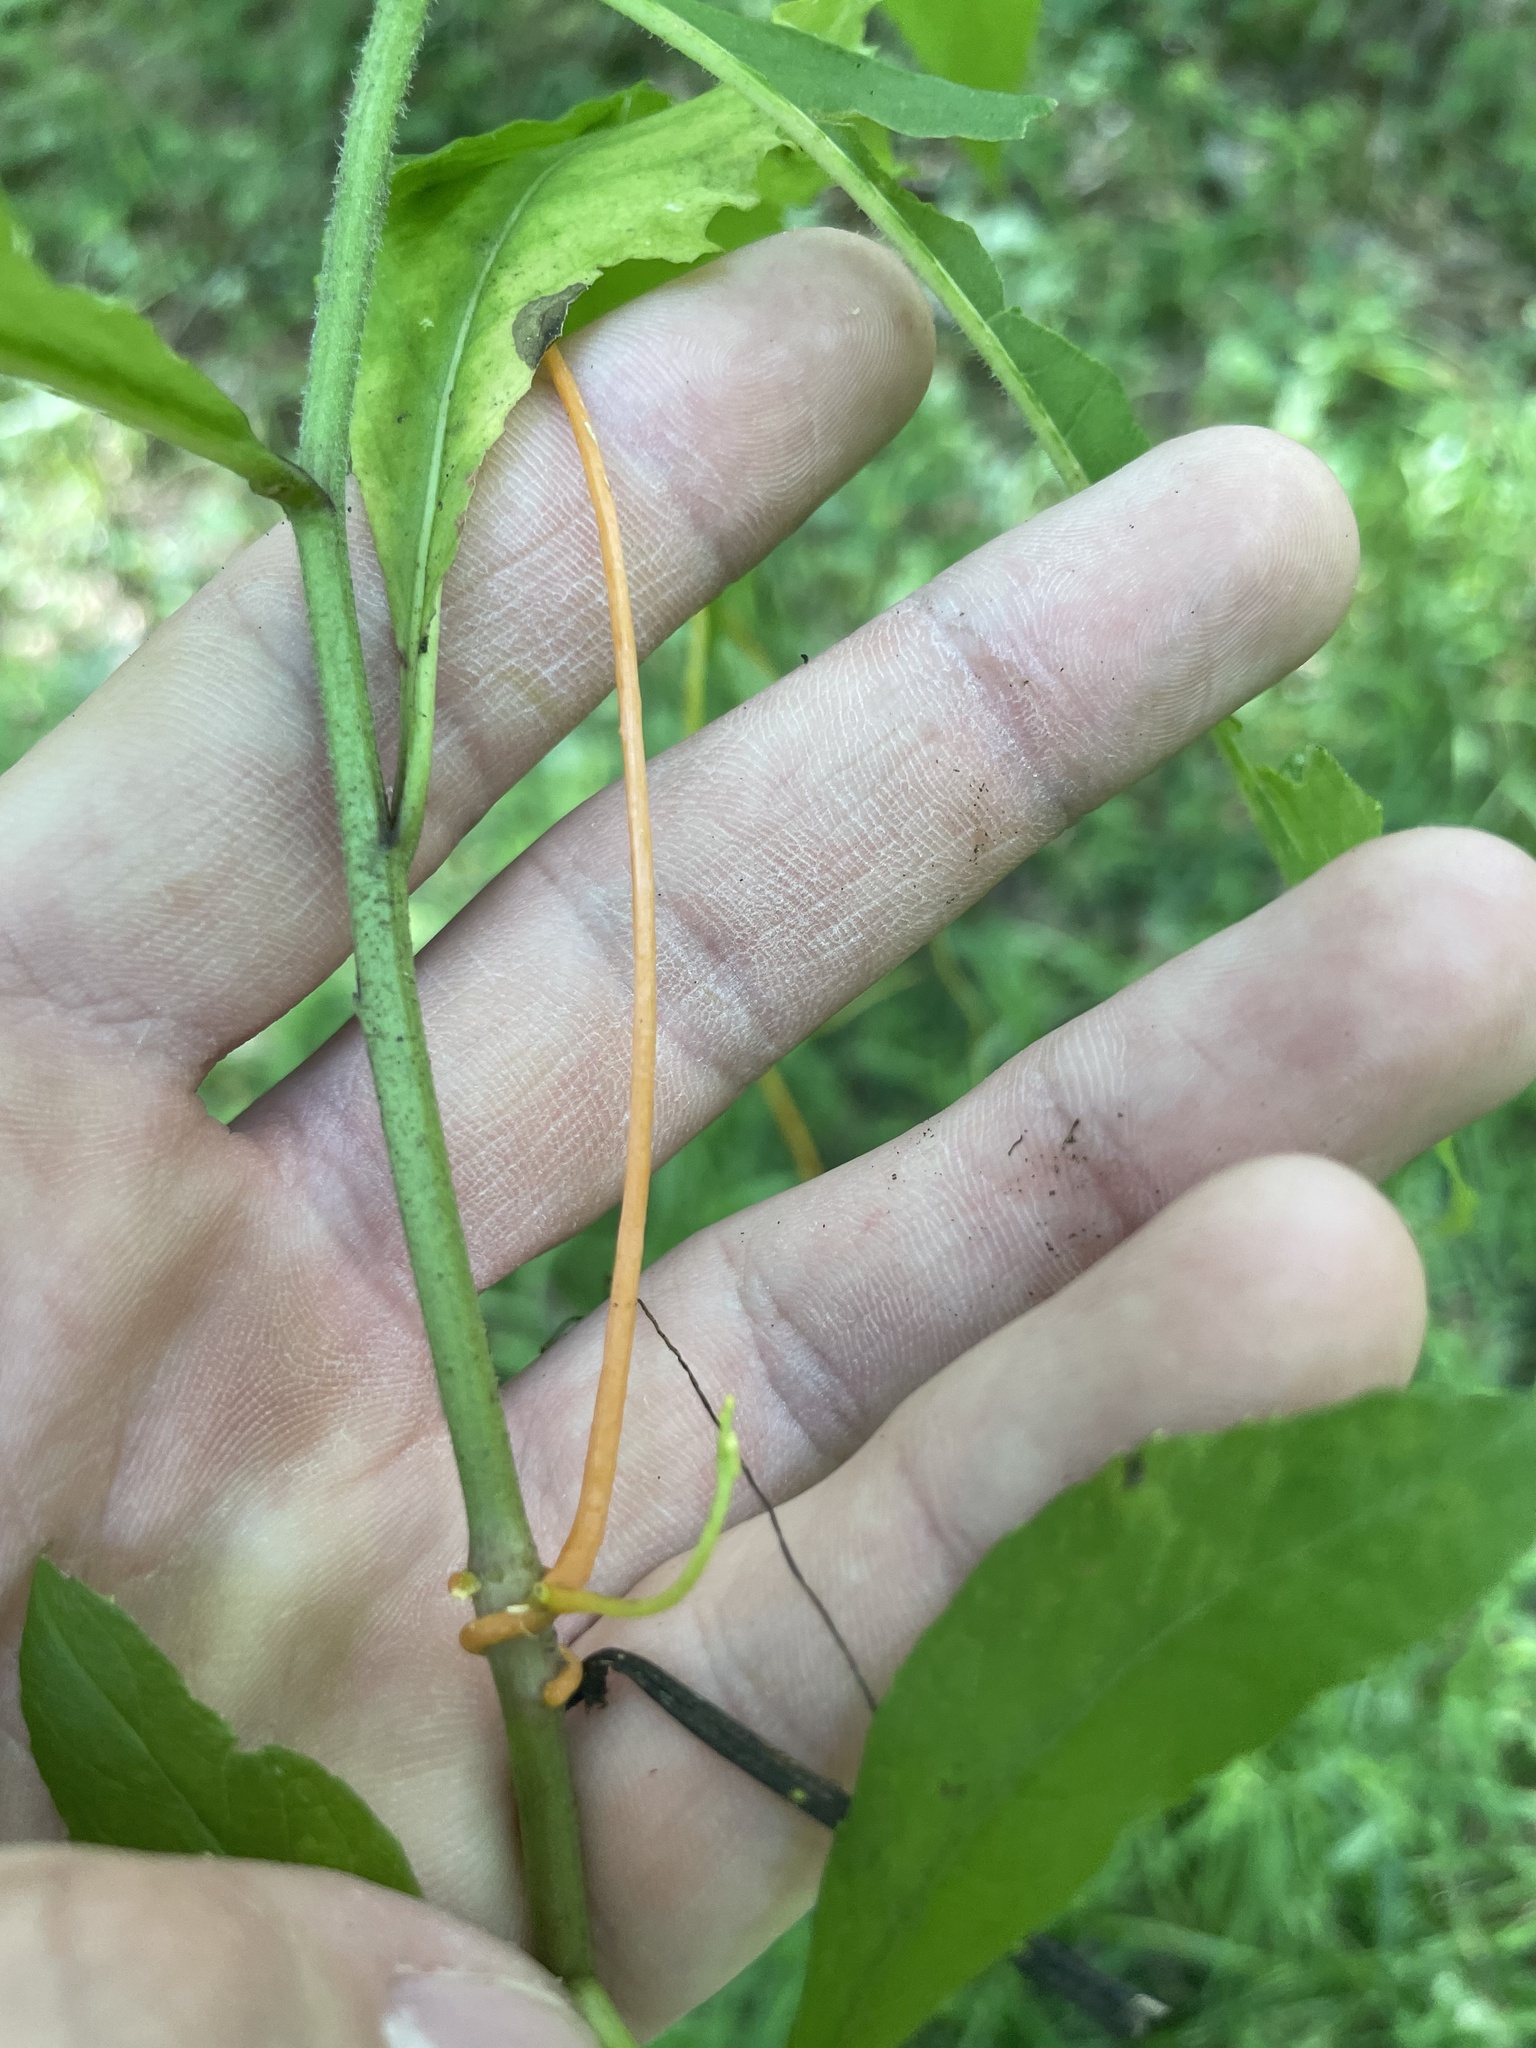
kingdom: Plantae
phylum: Tracheophyta
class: Magnoliopsida
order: Solanales
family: Convolvulaceae
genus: Cuscuta
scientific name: Cuscuta campestris
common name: Yellow dodder
